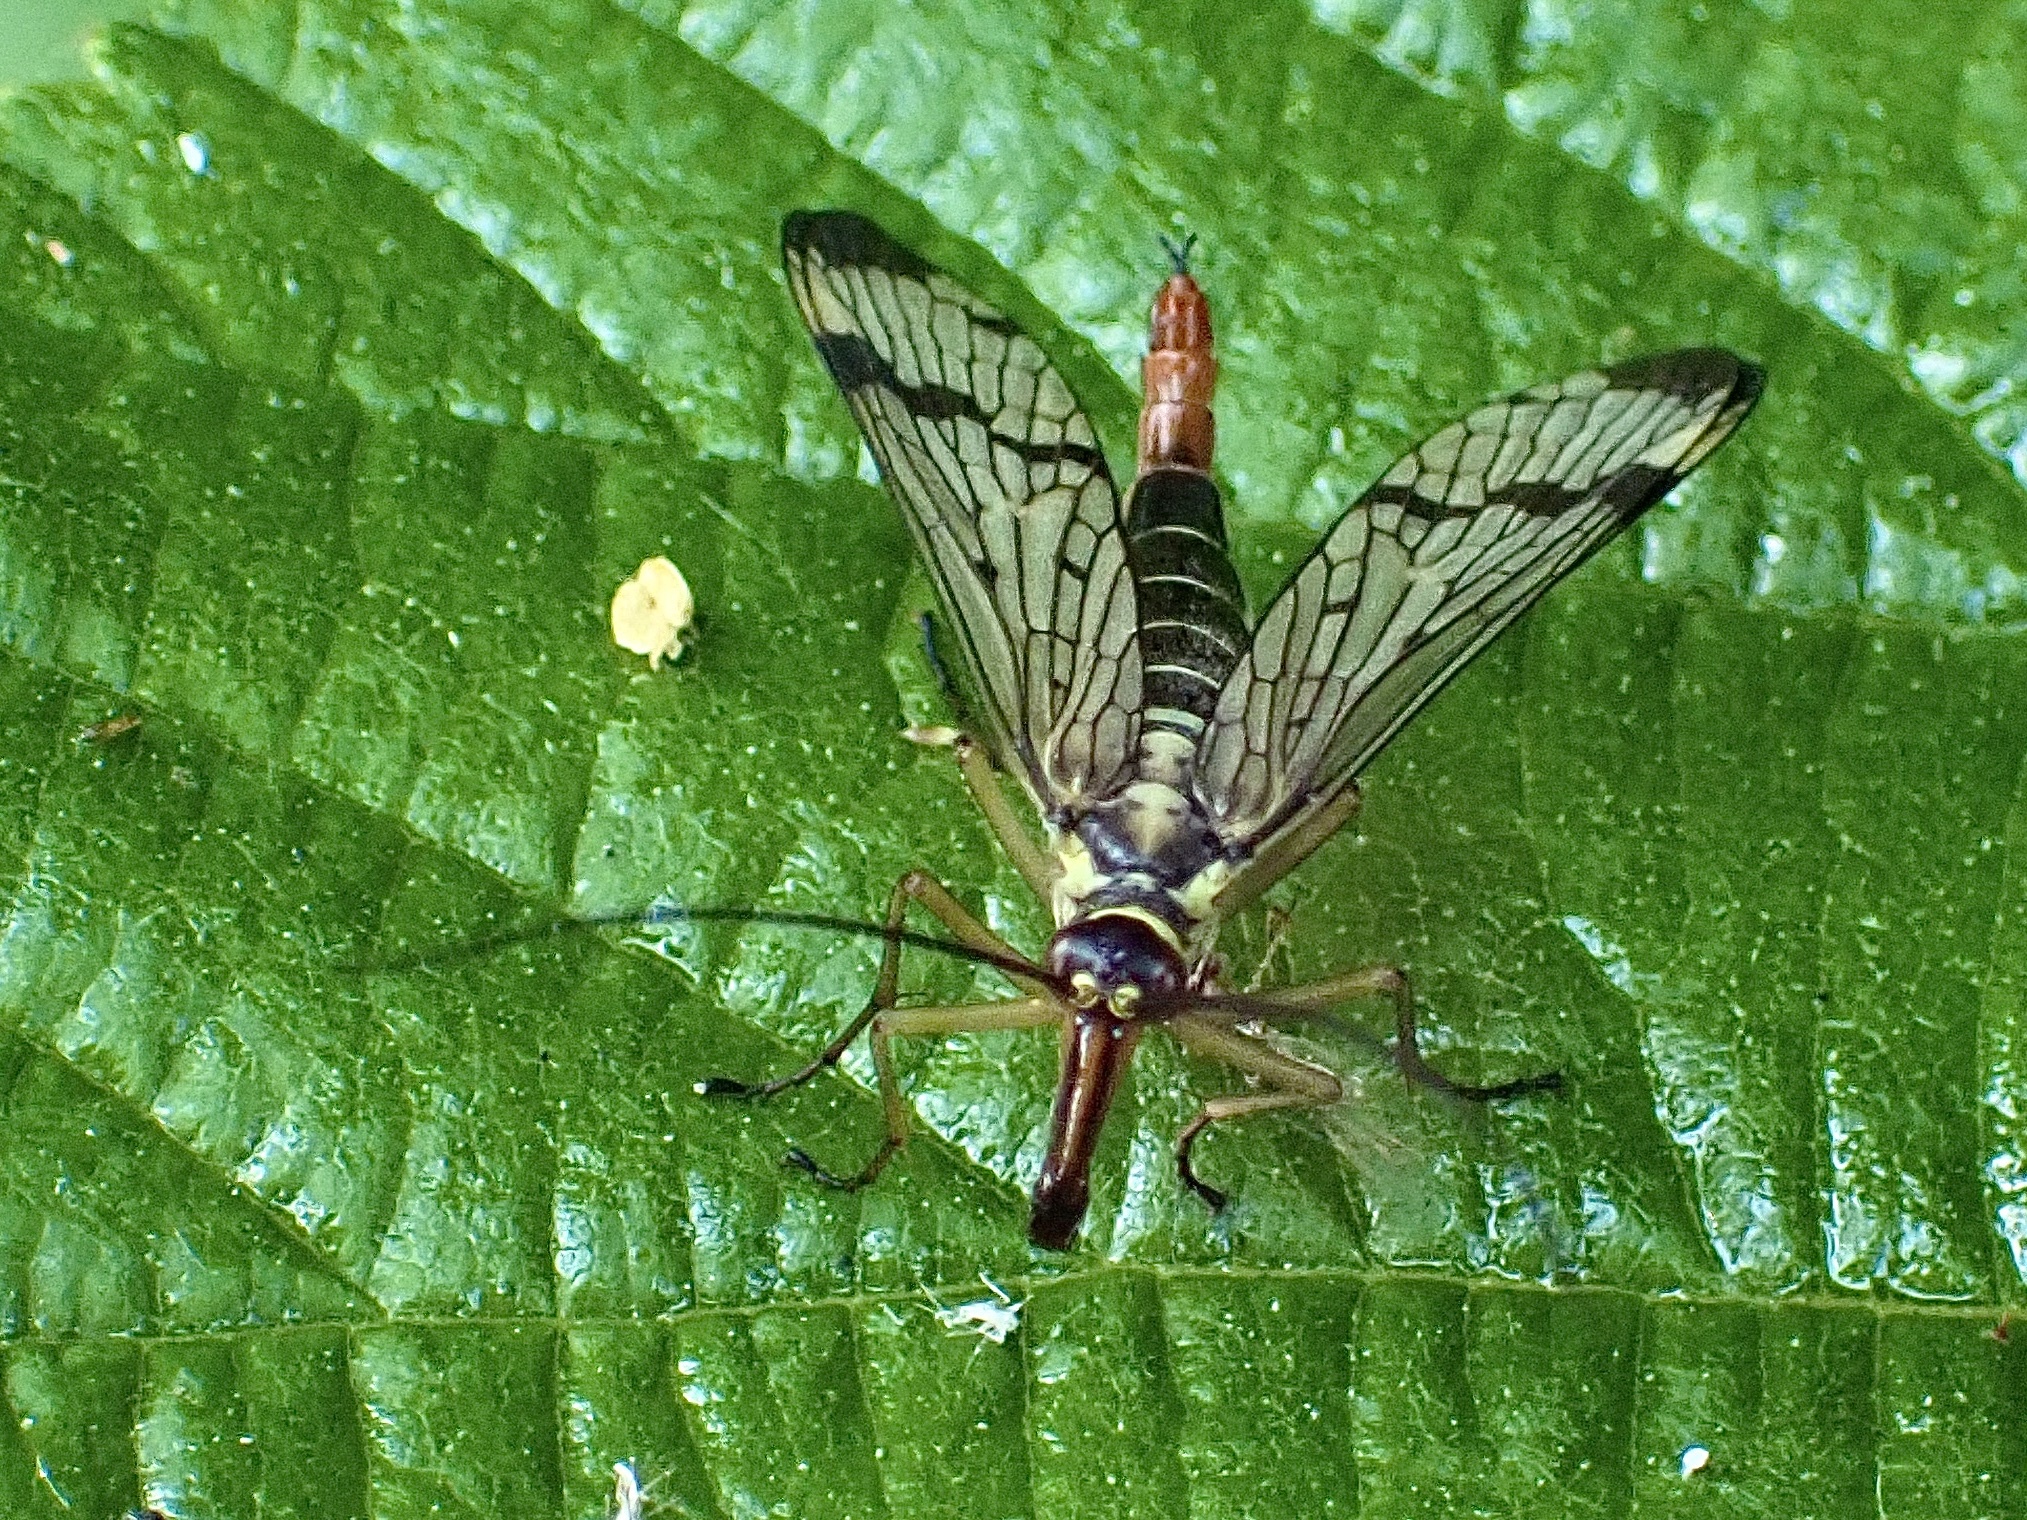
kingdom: Animalia
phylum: Arthropoda
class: Insecta
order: Mecoptera
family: Panorpidae
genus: Panorpa
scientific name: Panorpa communis
